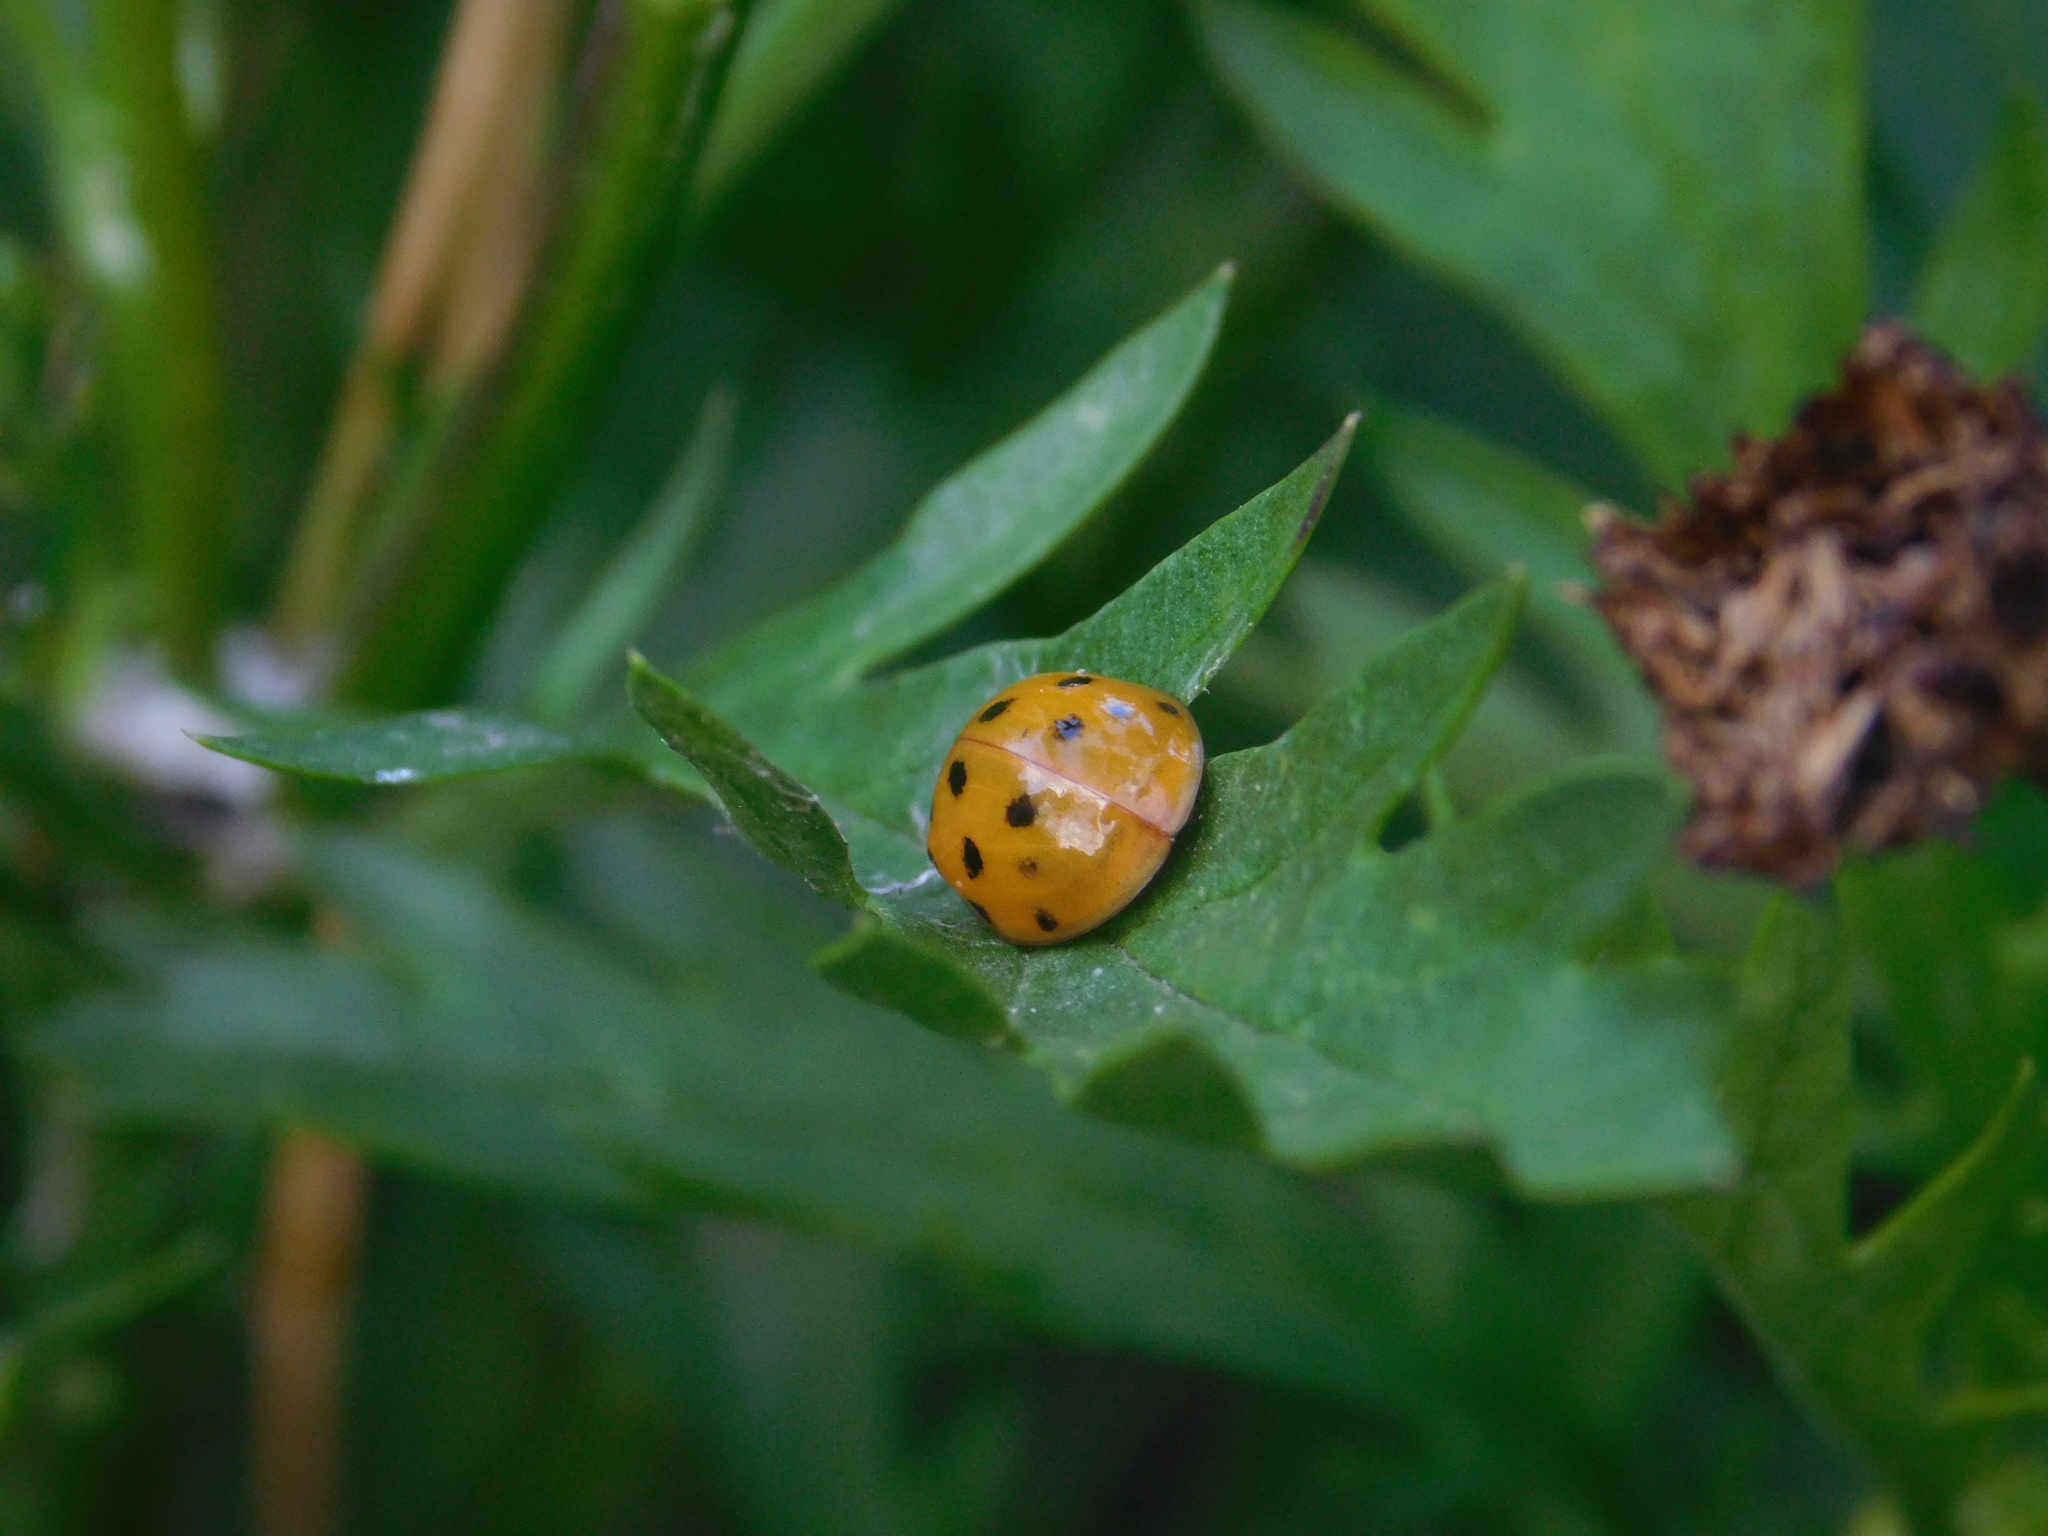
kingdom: Animalia
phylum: Arthropoda
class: Insecta
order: Coleoptera
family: Coccinellidae
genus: Harmonia
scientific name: Harmonia axyridis
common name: Harlequin ladybird
